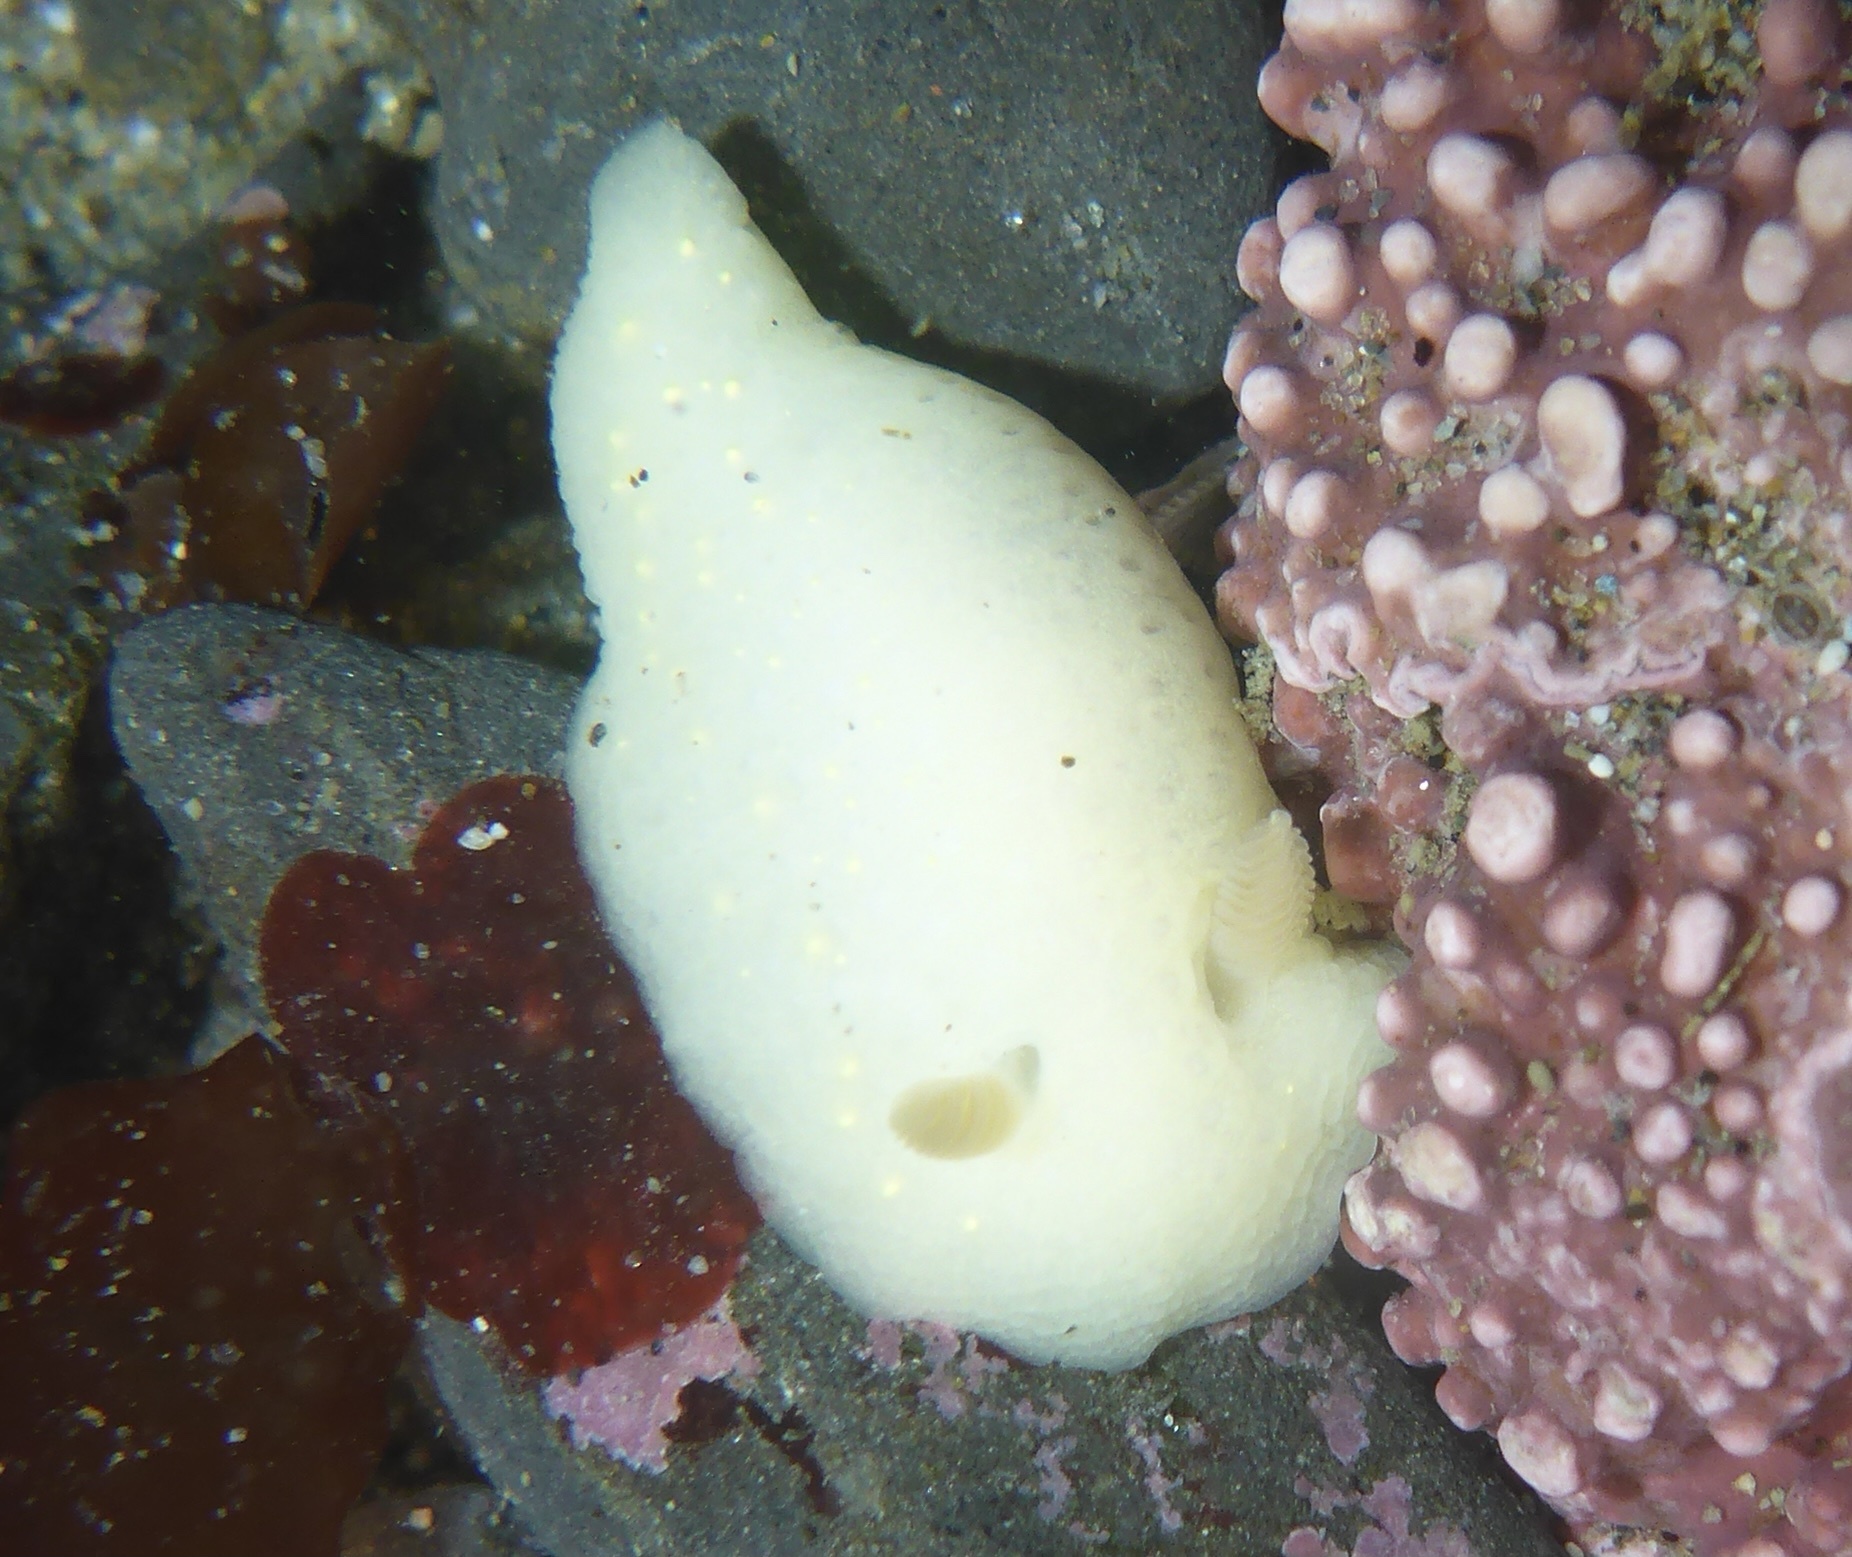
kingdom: Animalia
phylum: Mollusca
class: Gastropoda
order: Nudibranchia
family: Cadlinidae
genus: Cadlina
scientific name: Cadlina modesta
